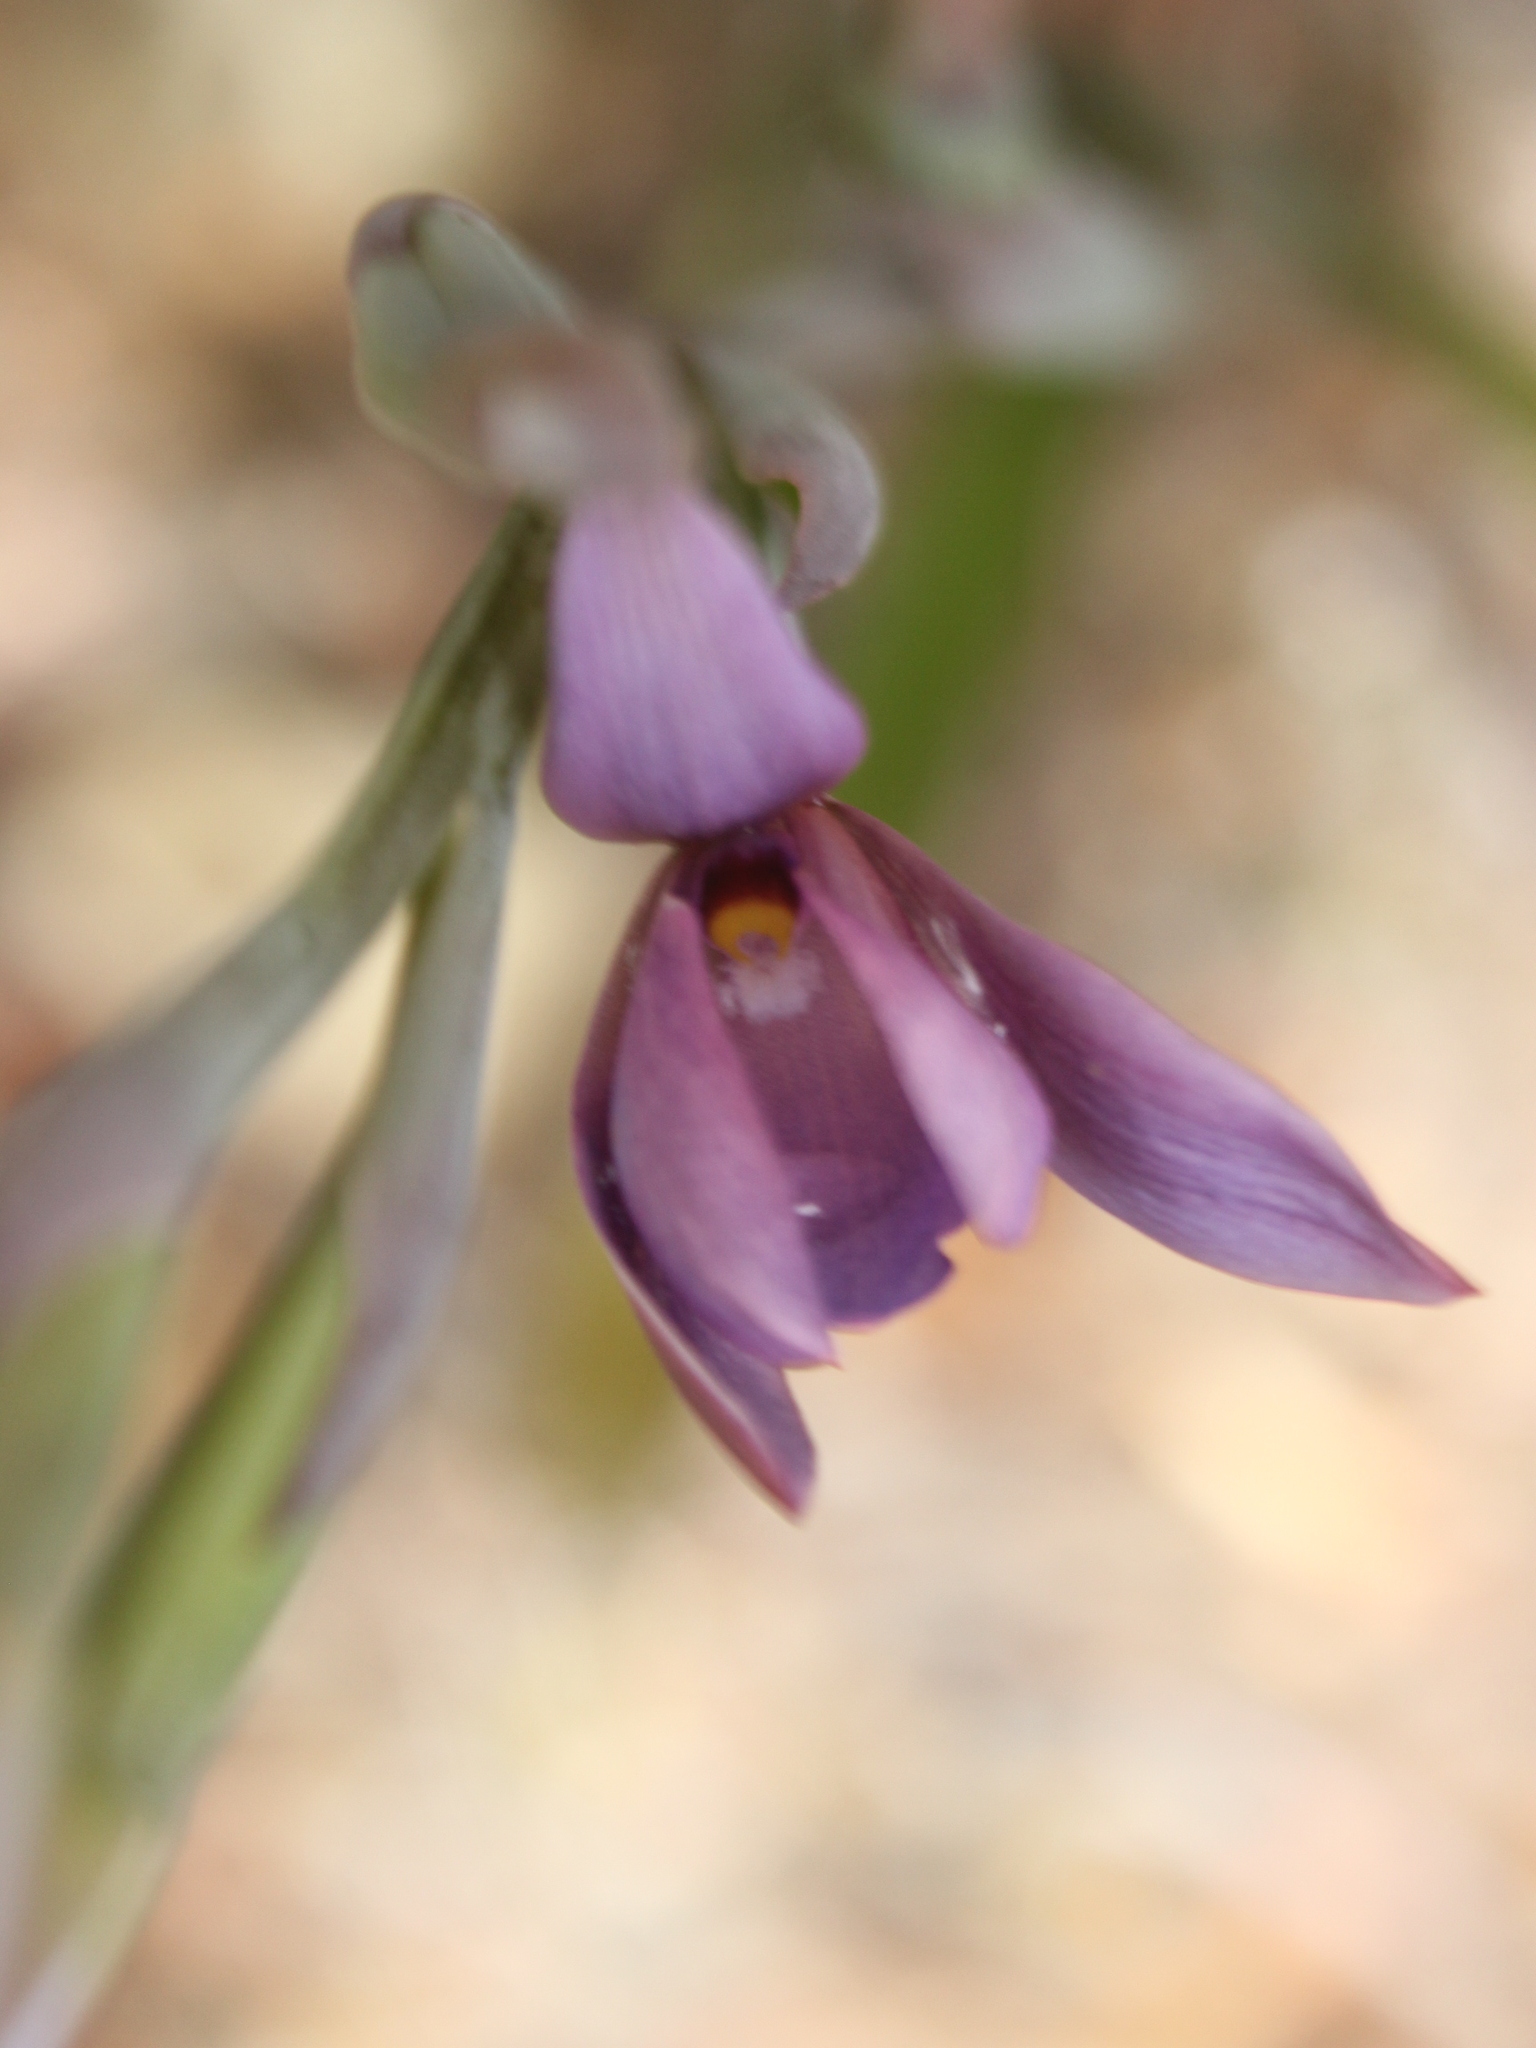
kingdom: Plantae
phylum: Tracheophyta
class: Liliopsida
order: Asparagales
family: Orchidaceae
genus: Thelymitra
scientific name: Thelymitra nervosa
